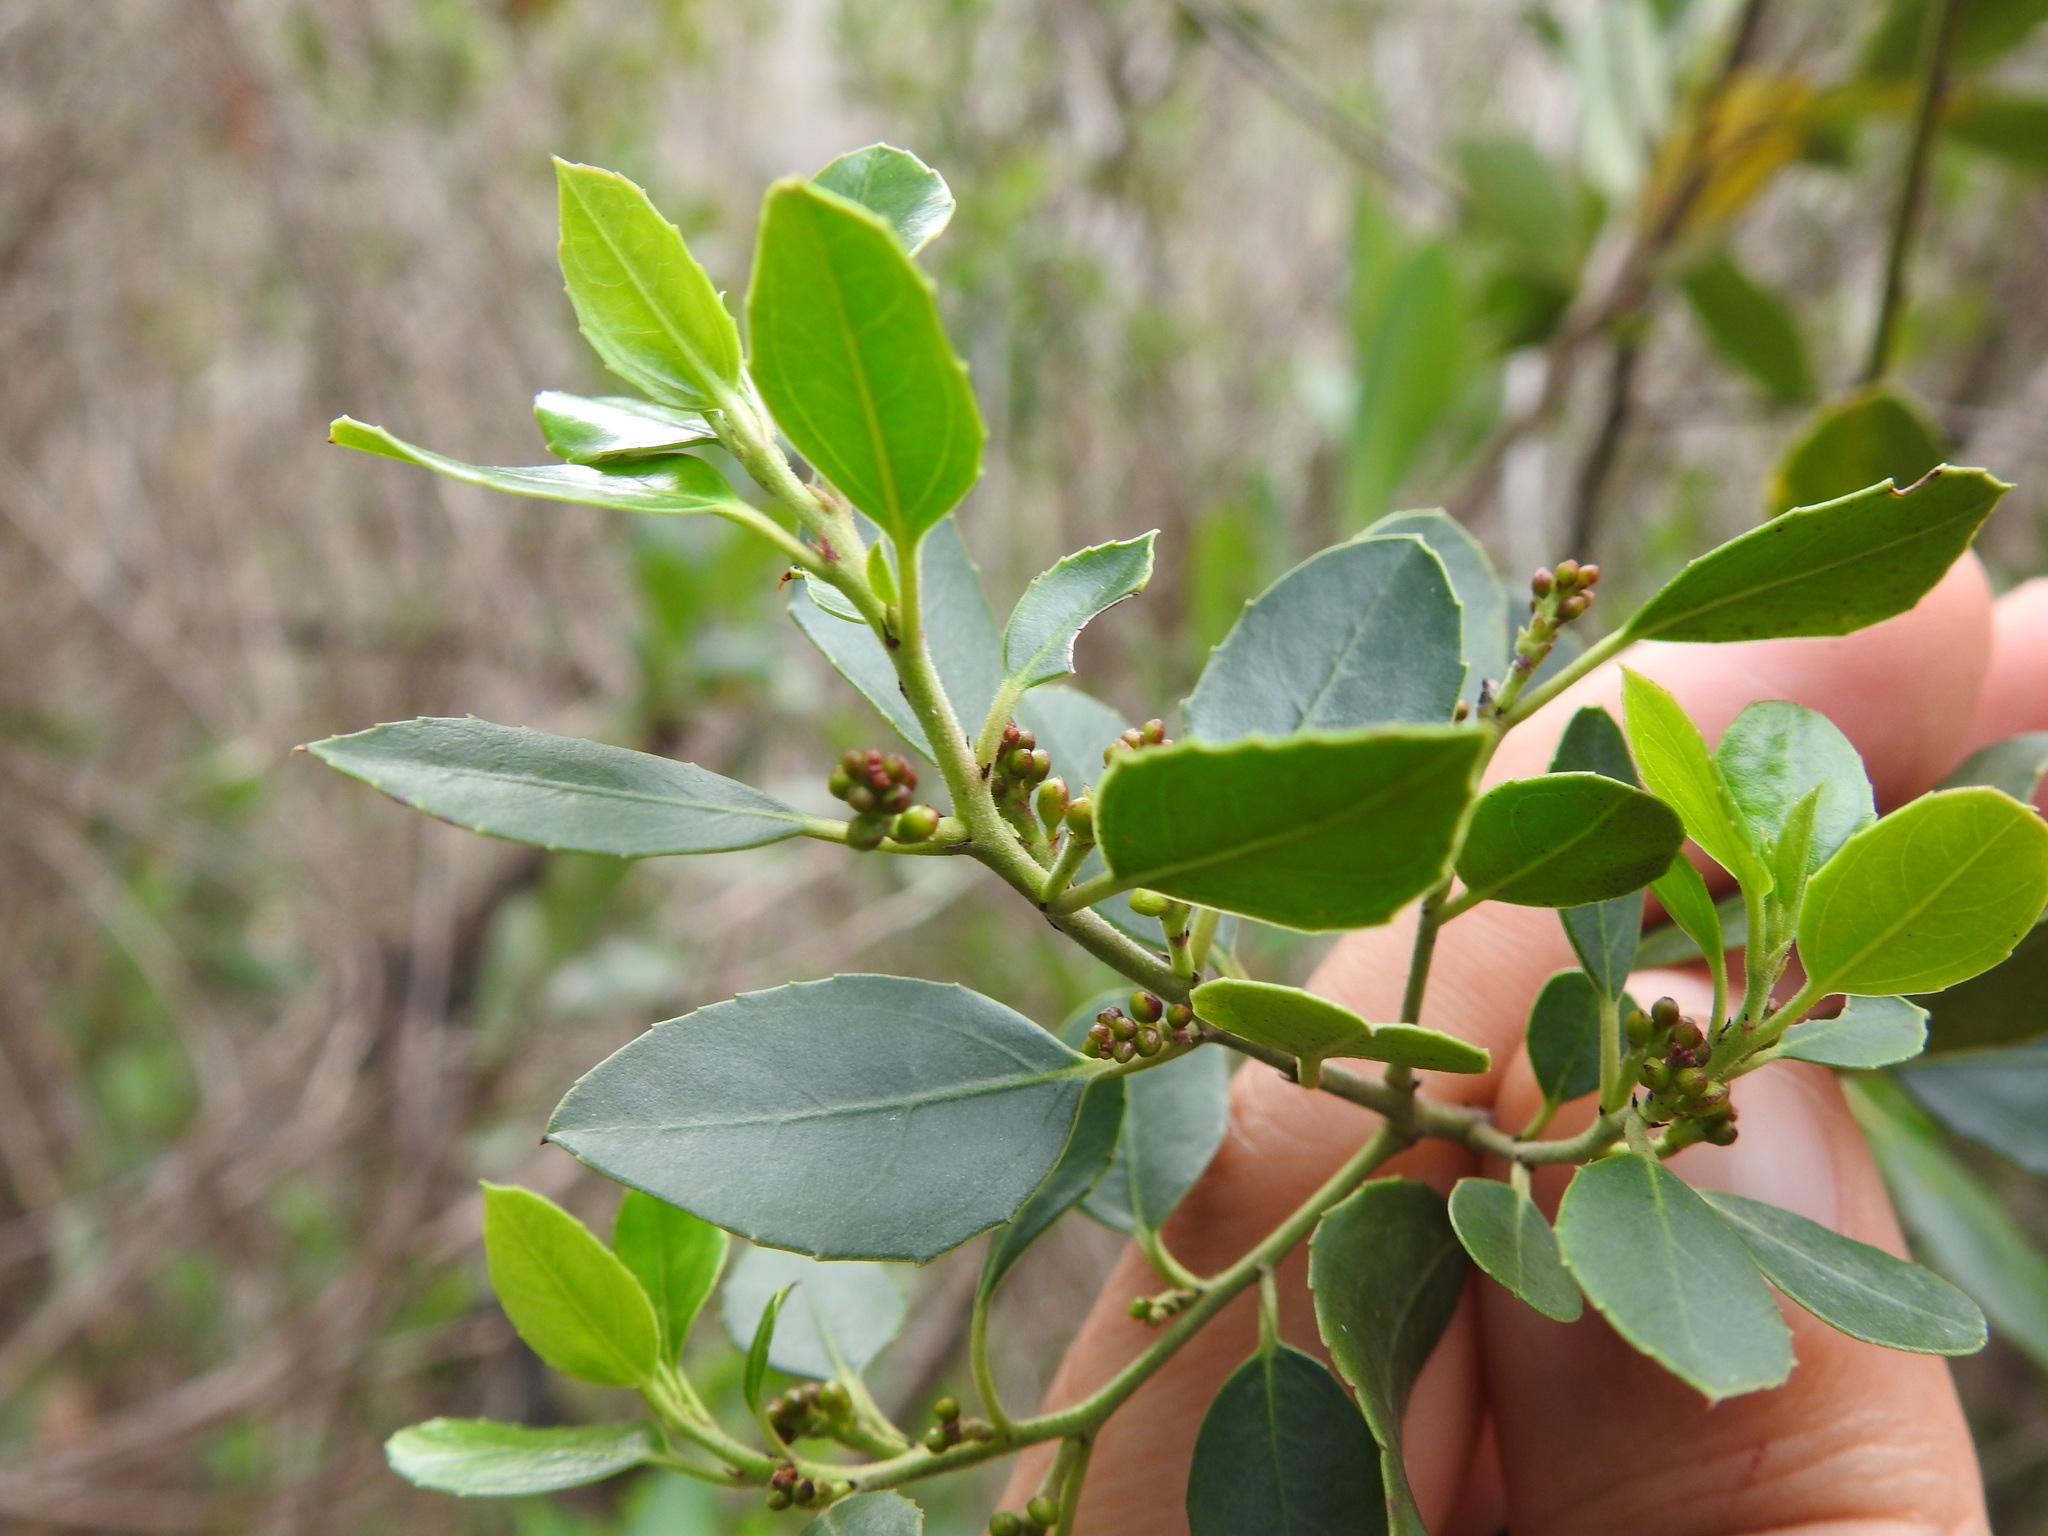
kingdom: Plantae
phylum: Tracheophyta
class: Magnoliopsida
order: Rosales
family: Rhamnaceae
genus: Rhamnus
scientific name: Rhamnus alaternus
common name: Mediterranean buckthorn
